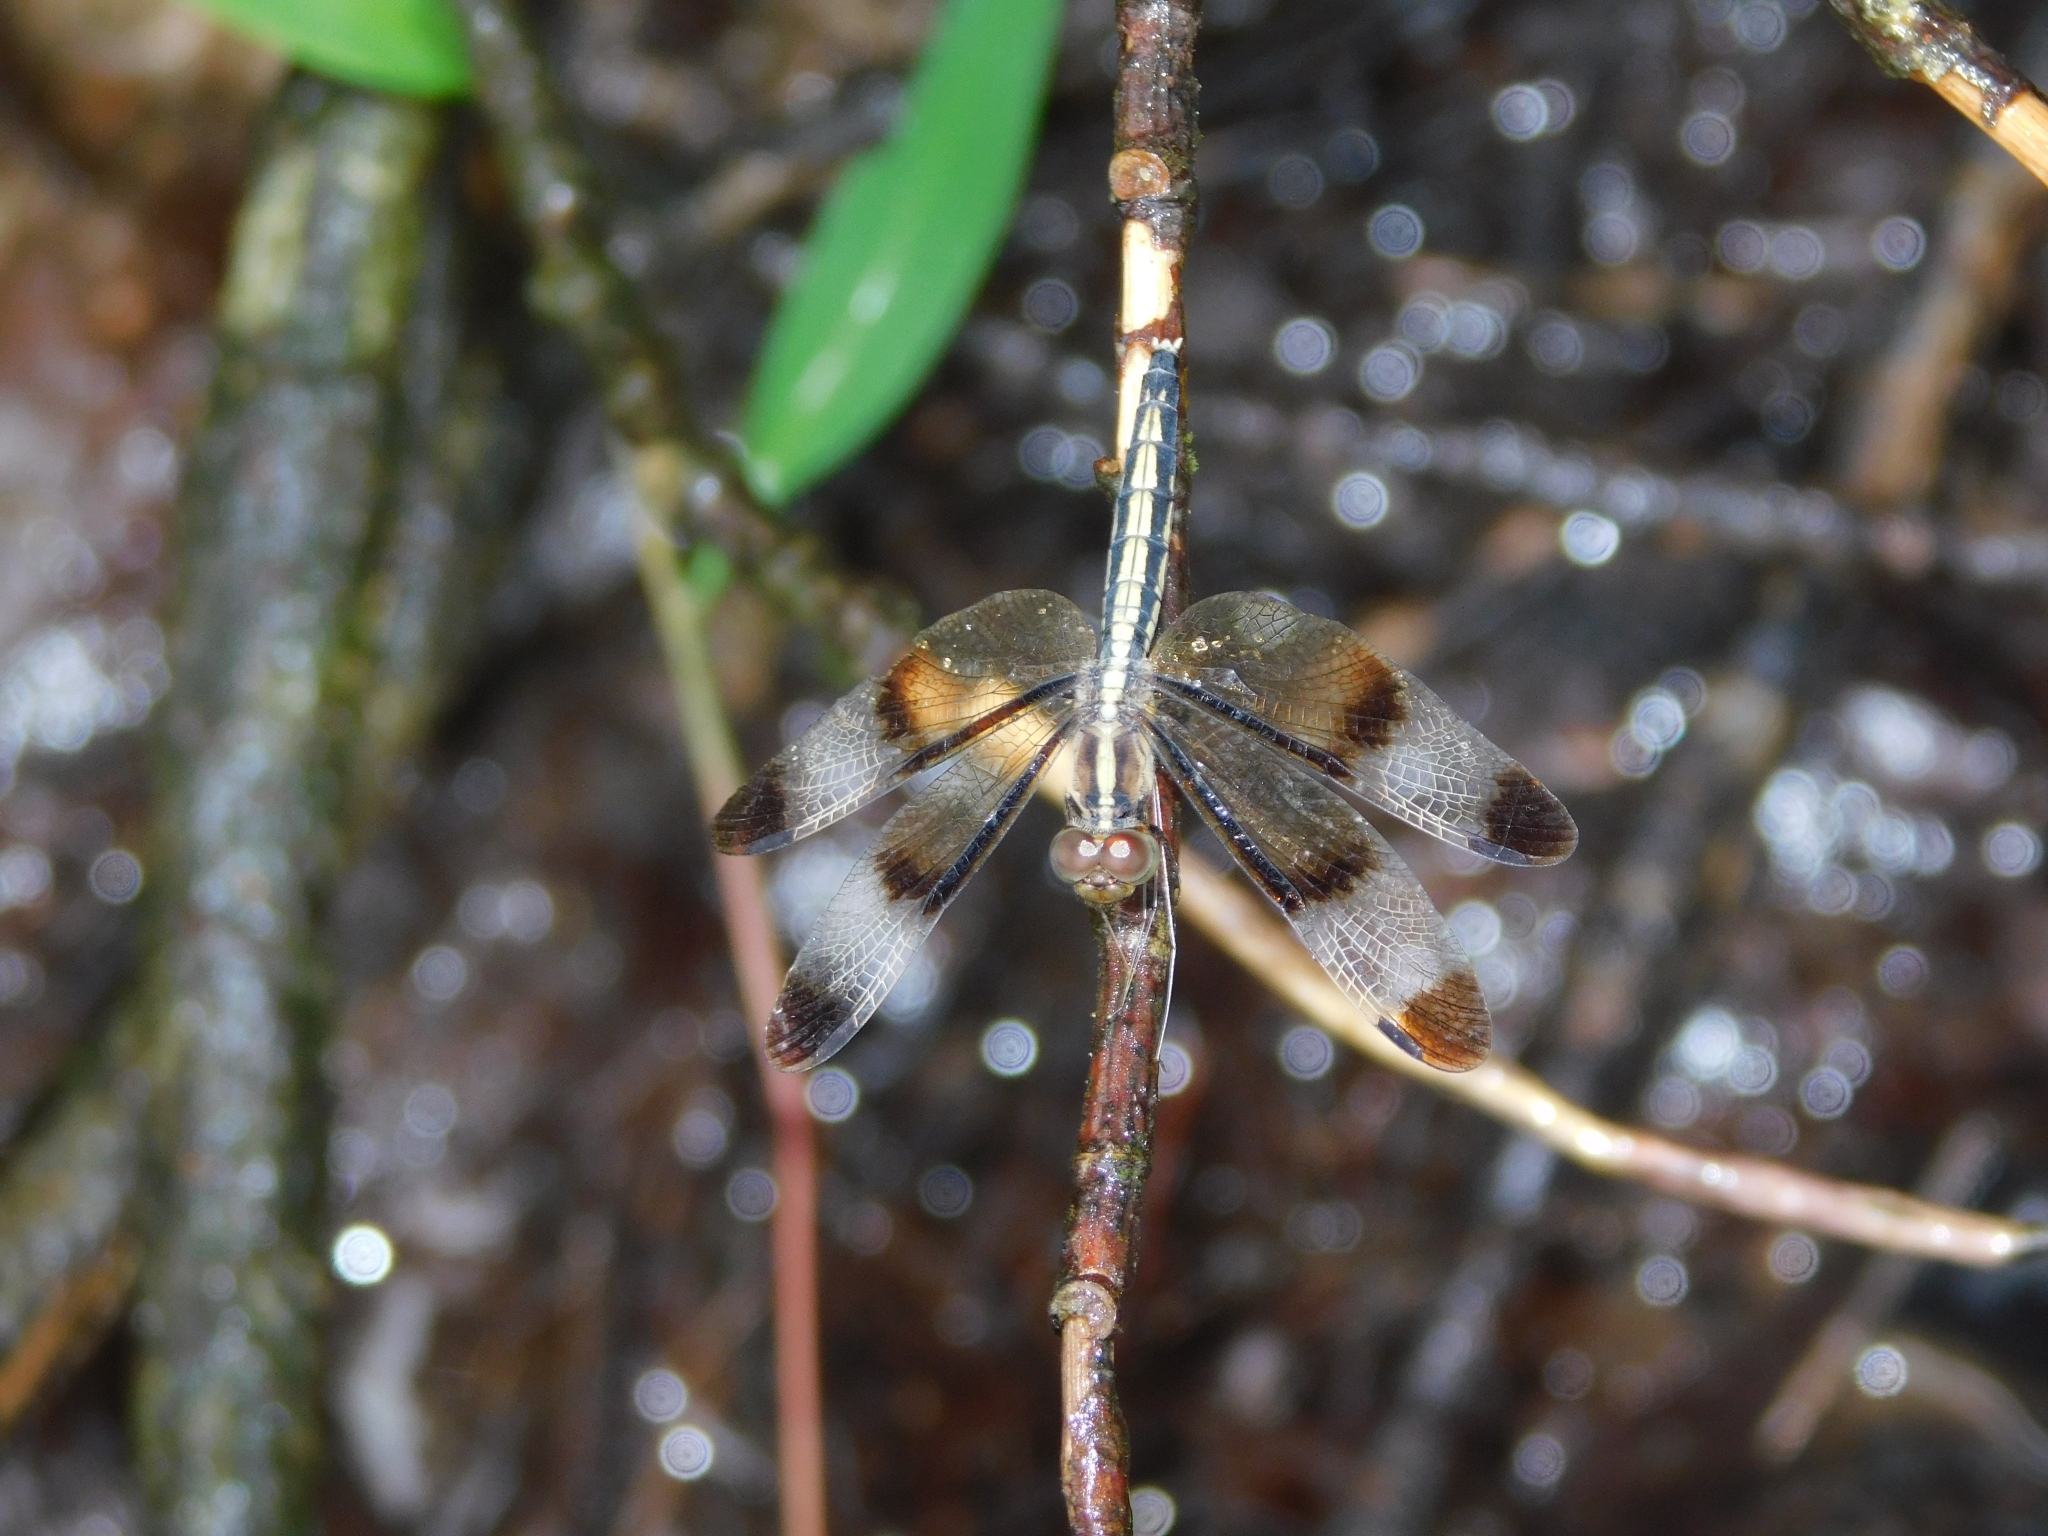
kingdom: Animalia
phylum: Arthropoda
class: Insecta
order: Odonata
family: Libellulidae
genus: Neurothemis
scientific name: Neurothemis tullia
